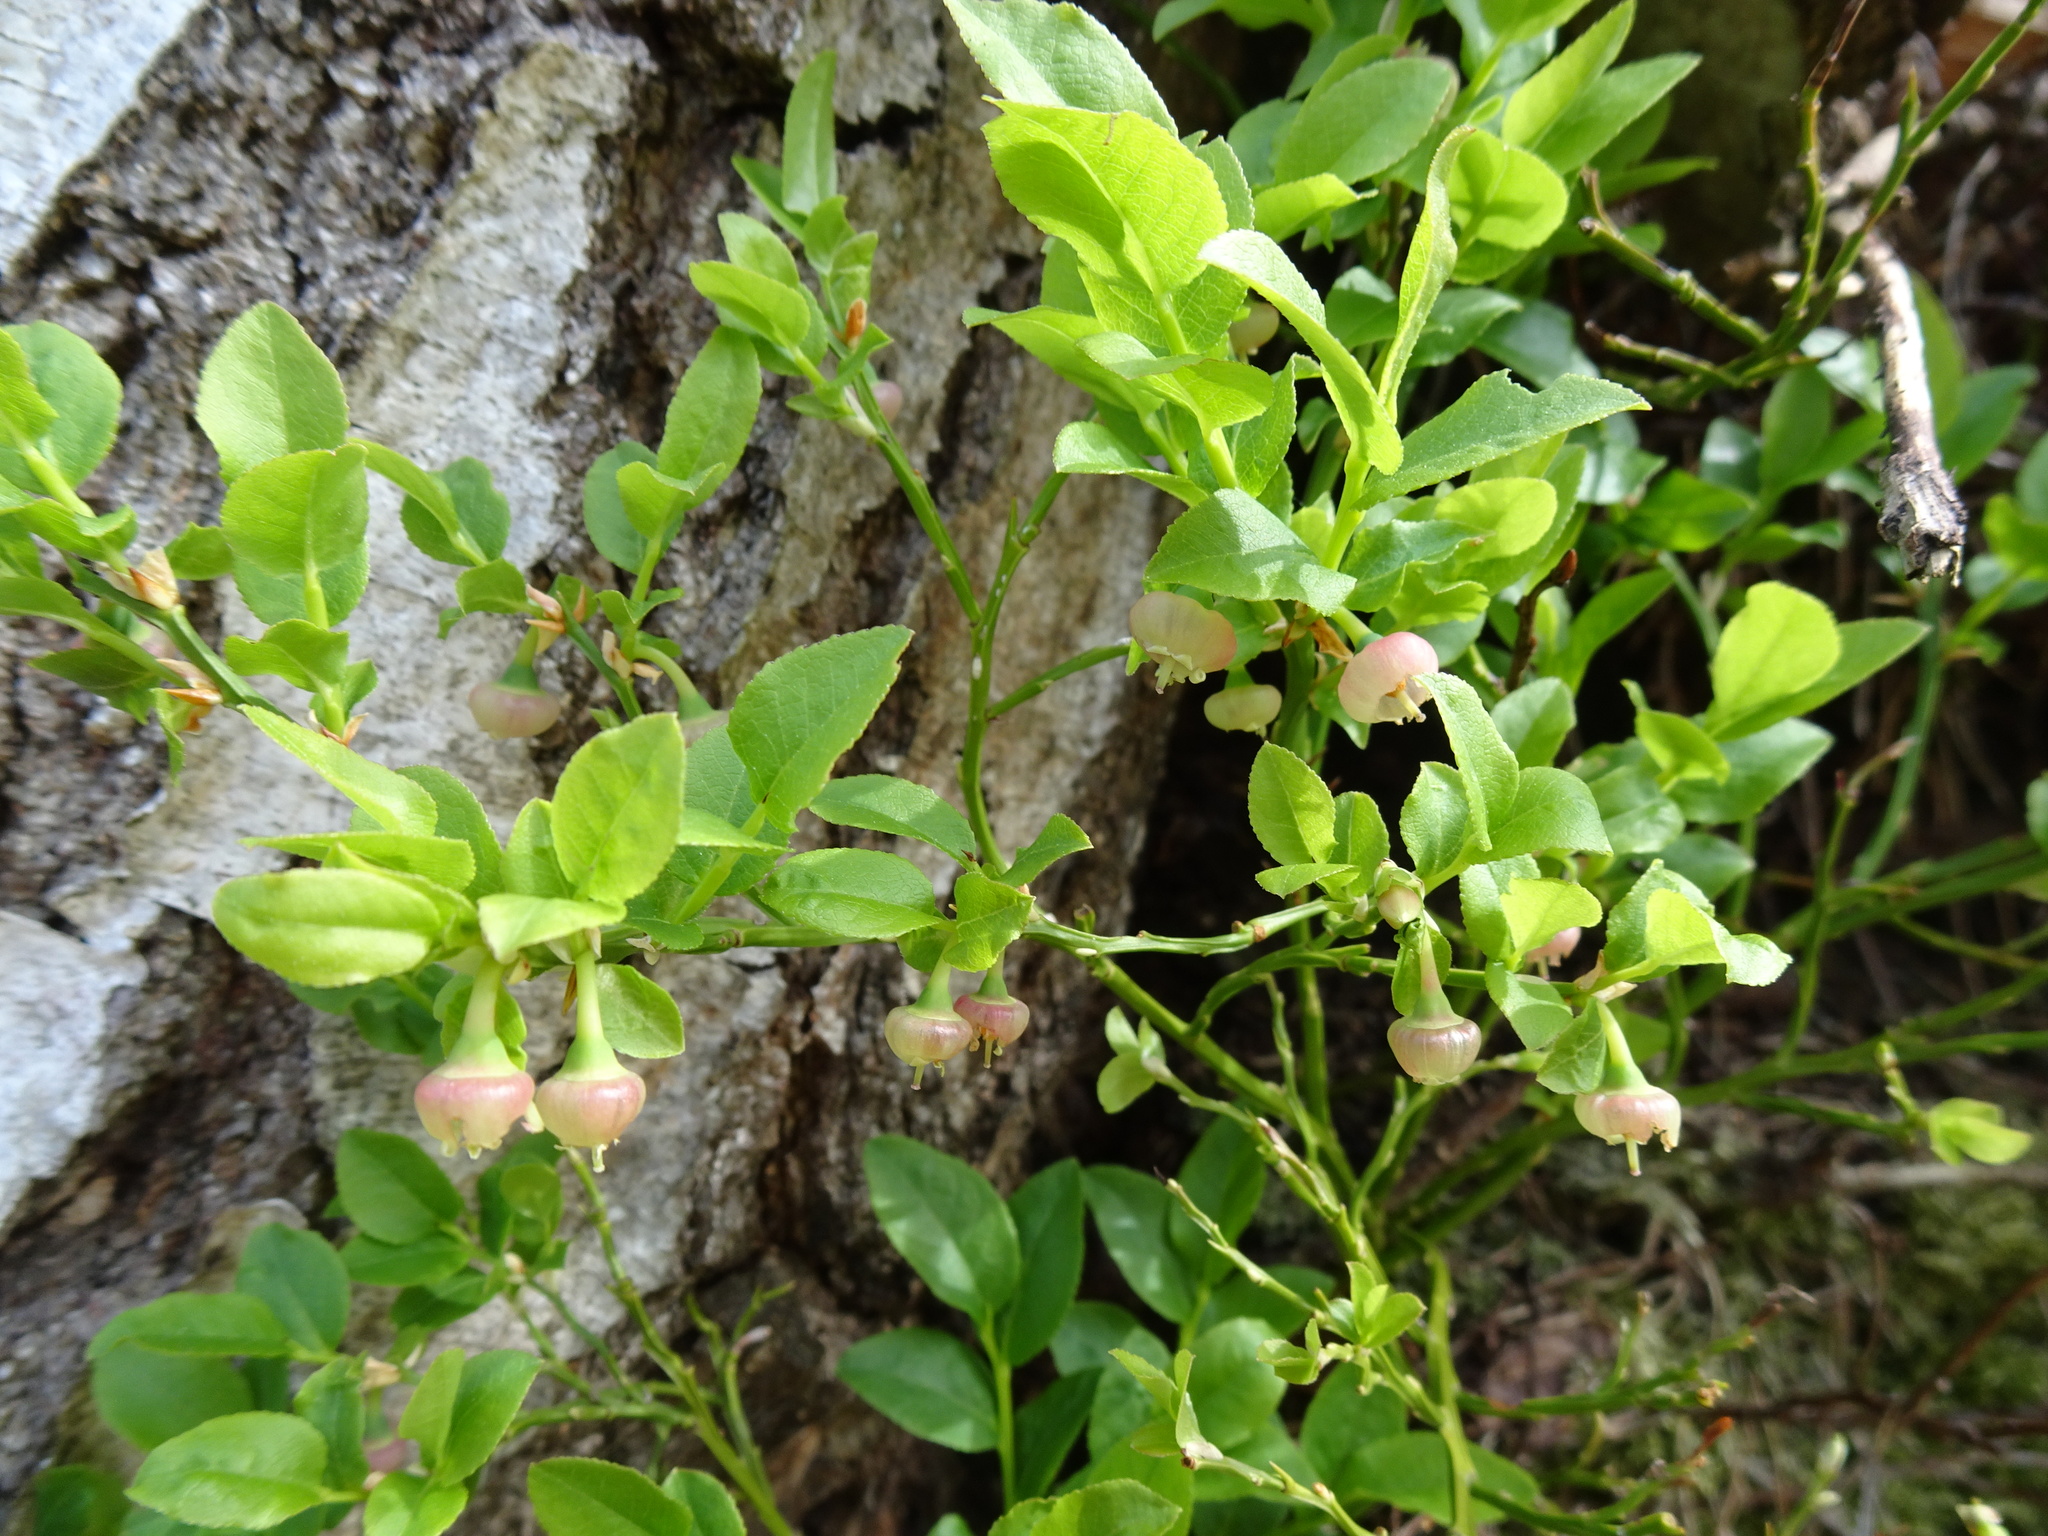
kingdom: Plantae
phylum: Tracheophyta
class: Magnoliopsida
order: Ericales
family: Ericaceae
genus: Vaccinium
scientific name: Vaccinium myrtillus
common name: Bilberry
